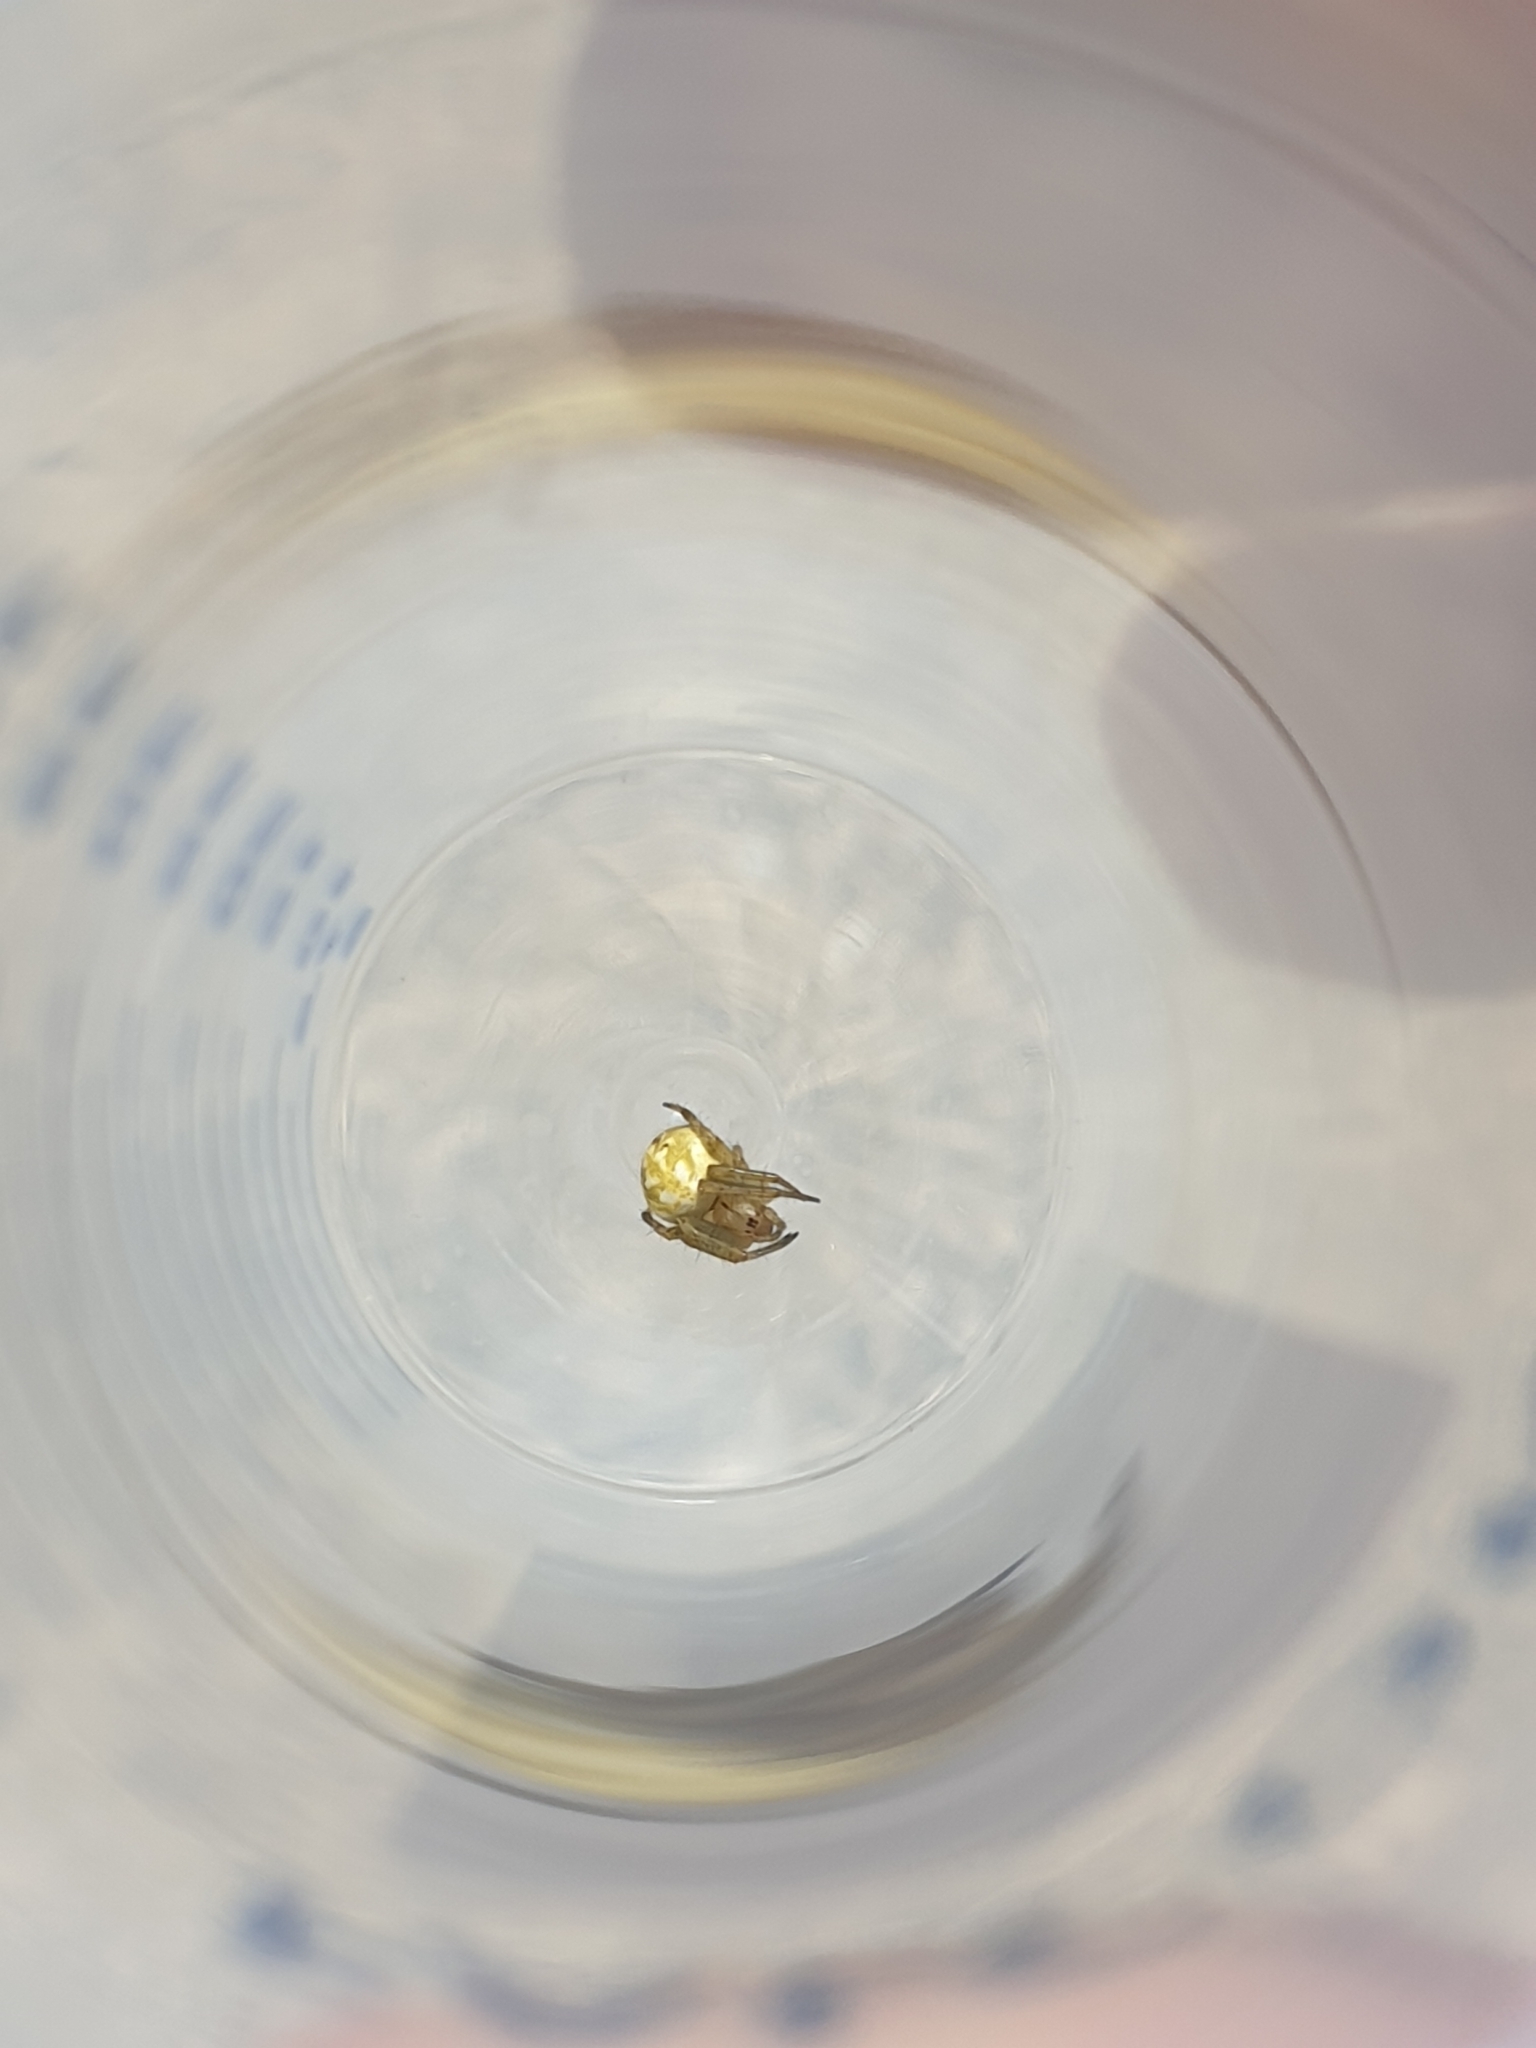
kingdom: Animalia
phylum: Arthropoda
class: Arachnida
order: Araneae
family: Araneidae
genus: Neoscona
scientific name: Neoscona adianta
